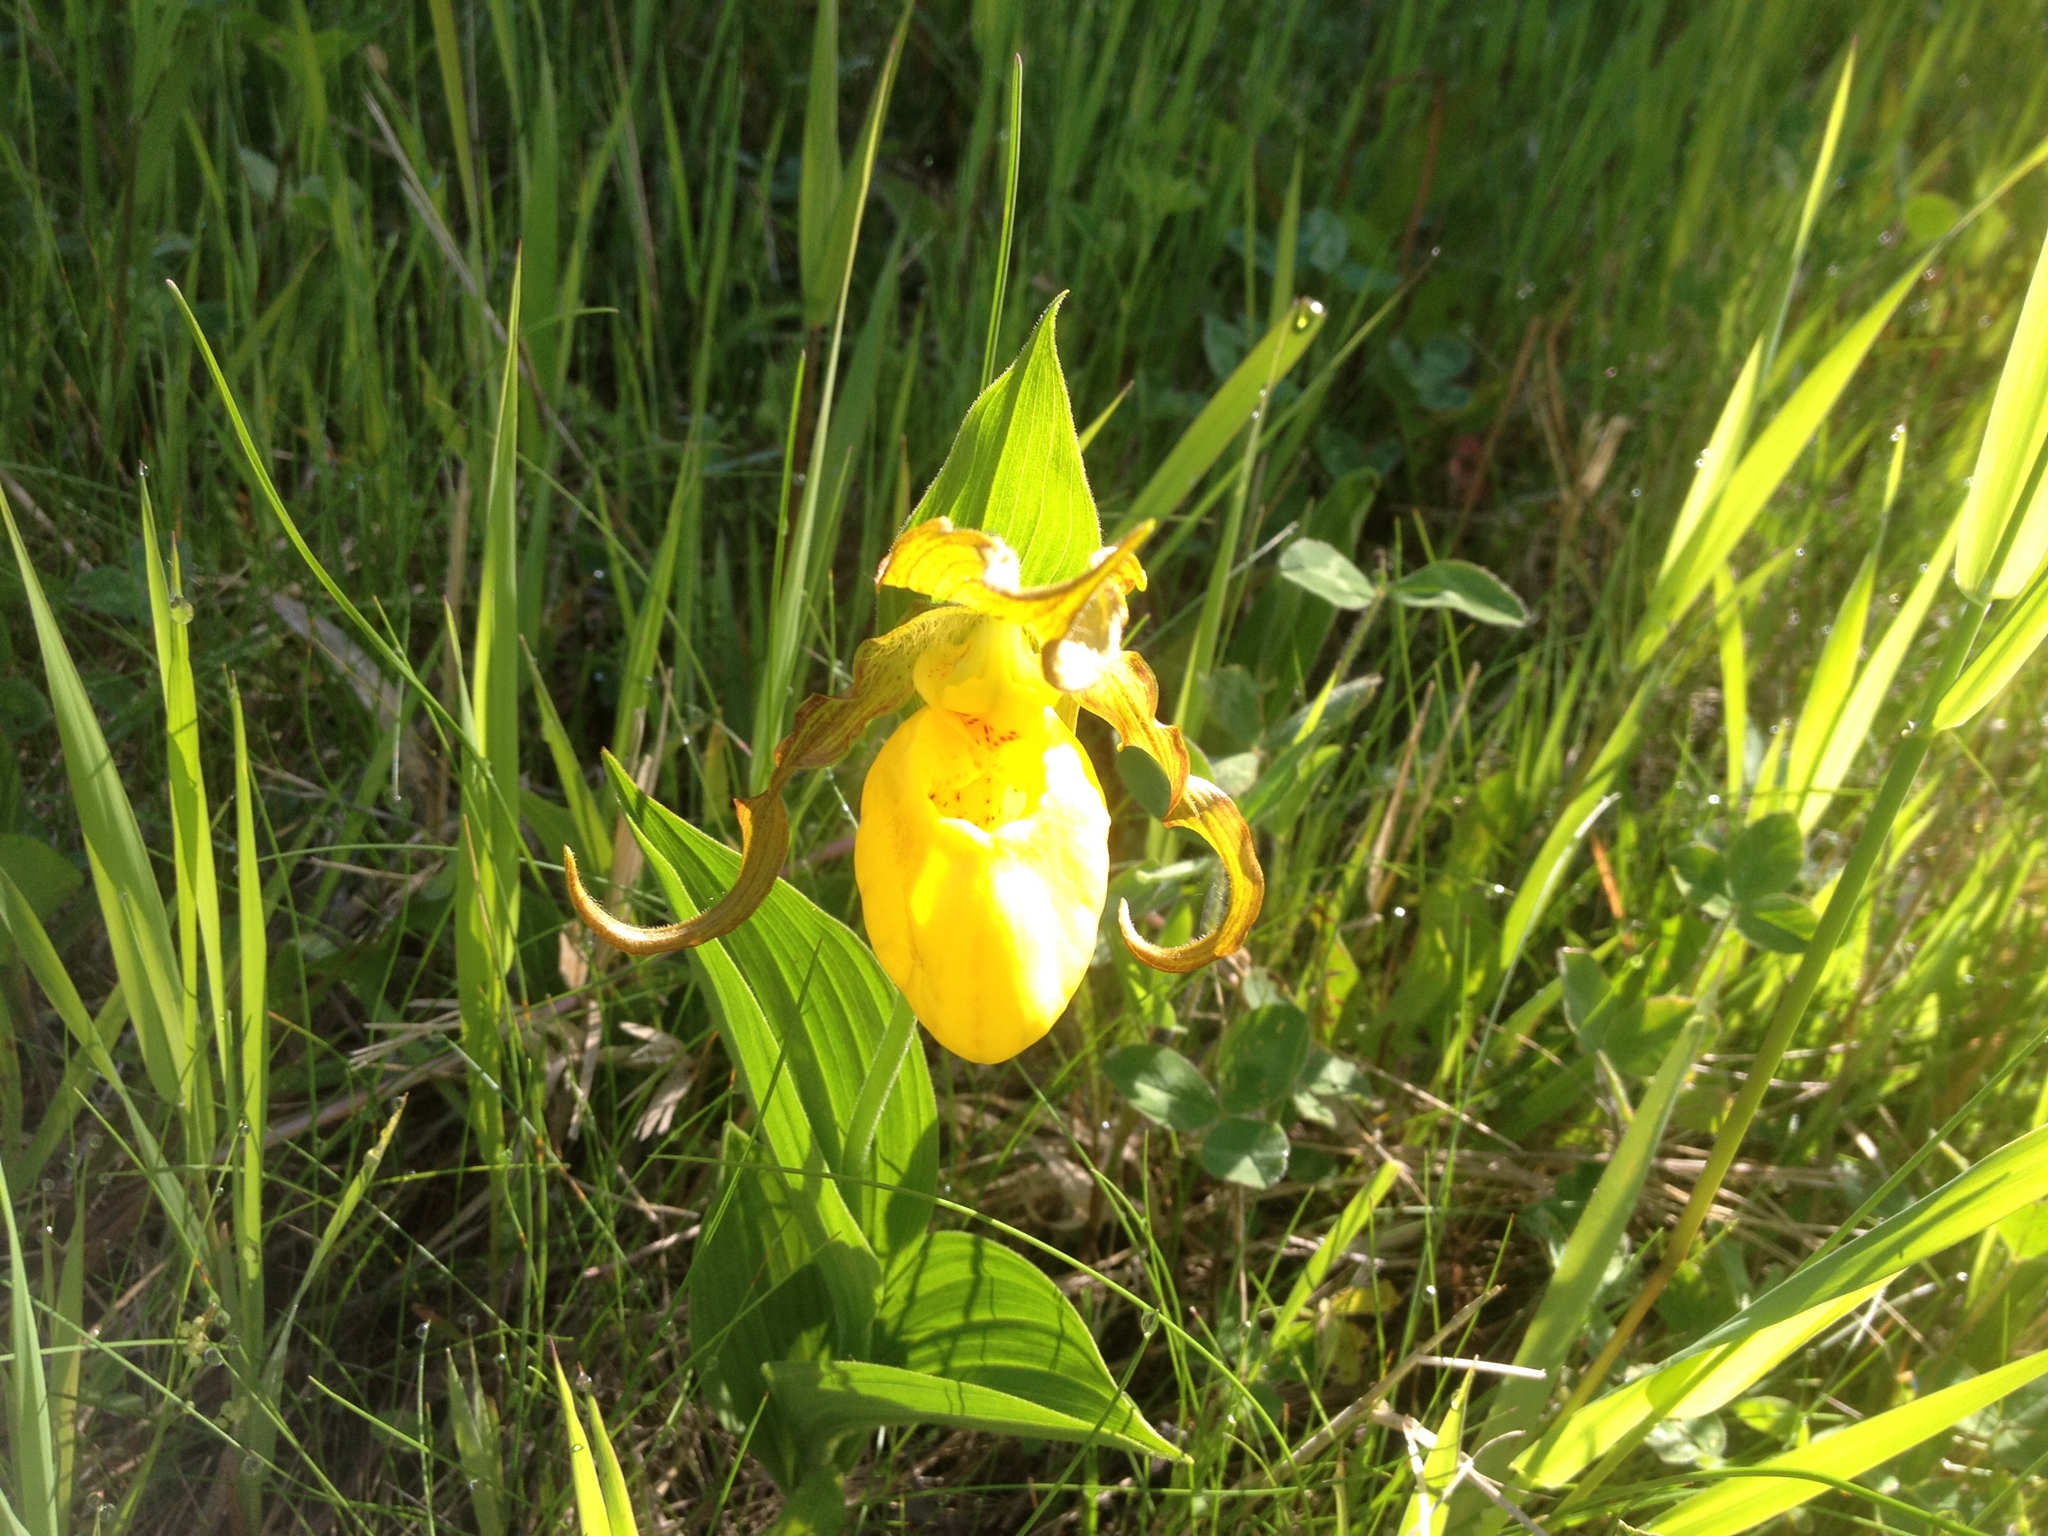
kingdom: Plantae
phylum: Tracheophyta
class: Liliopsida
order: Asparagales
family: Orchidaceae
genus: Cypripedium
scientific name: Cypripedium parviflorum
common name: American yellow lady's-slipper
